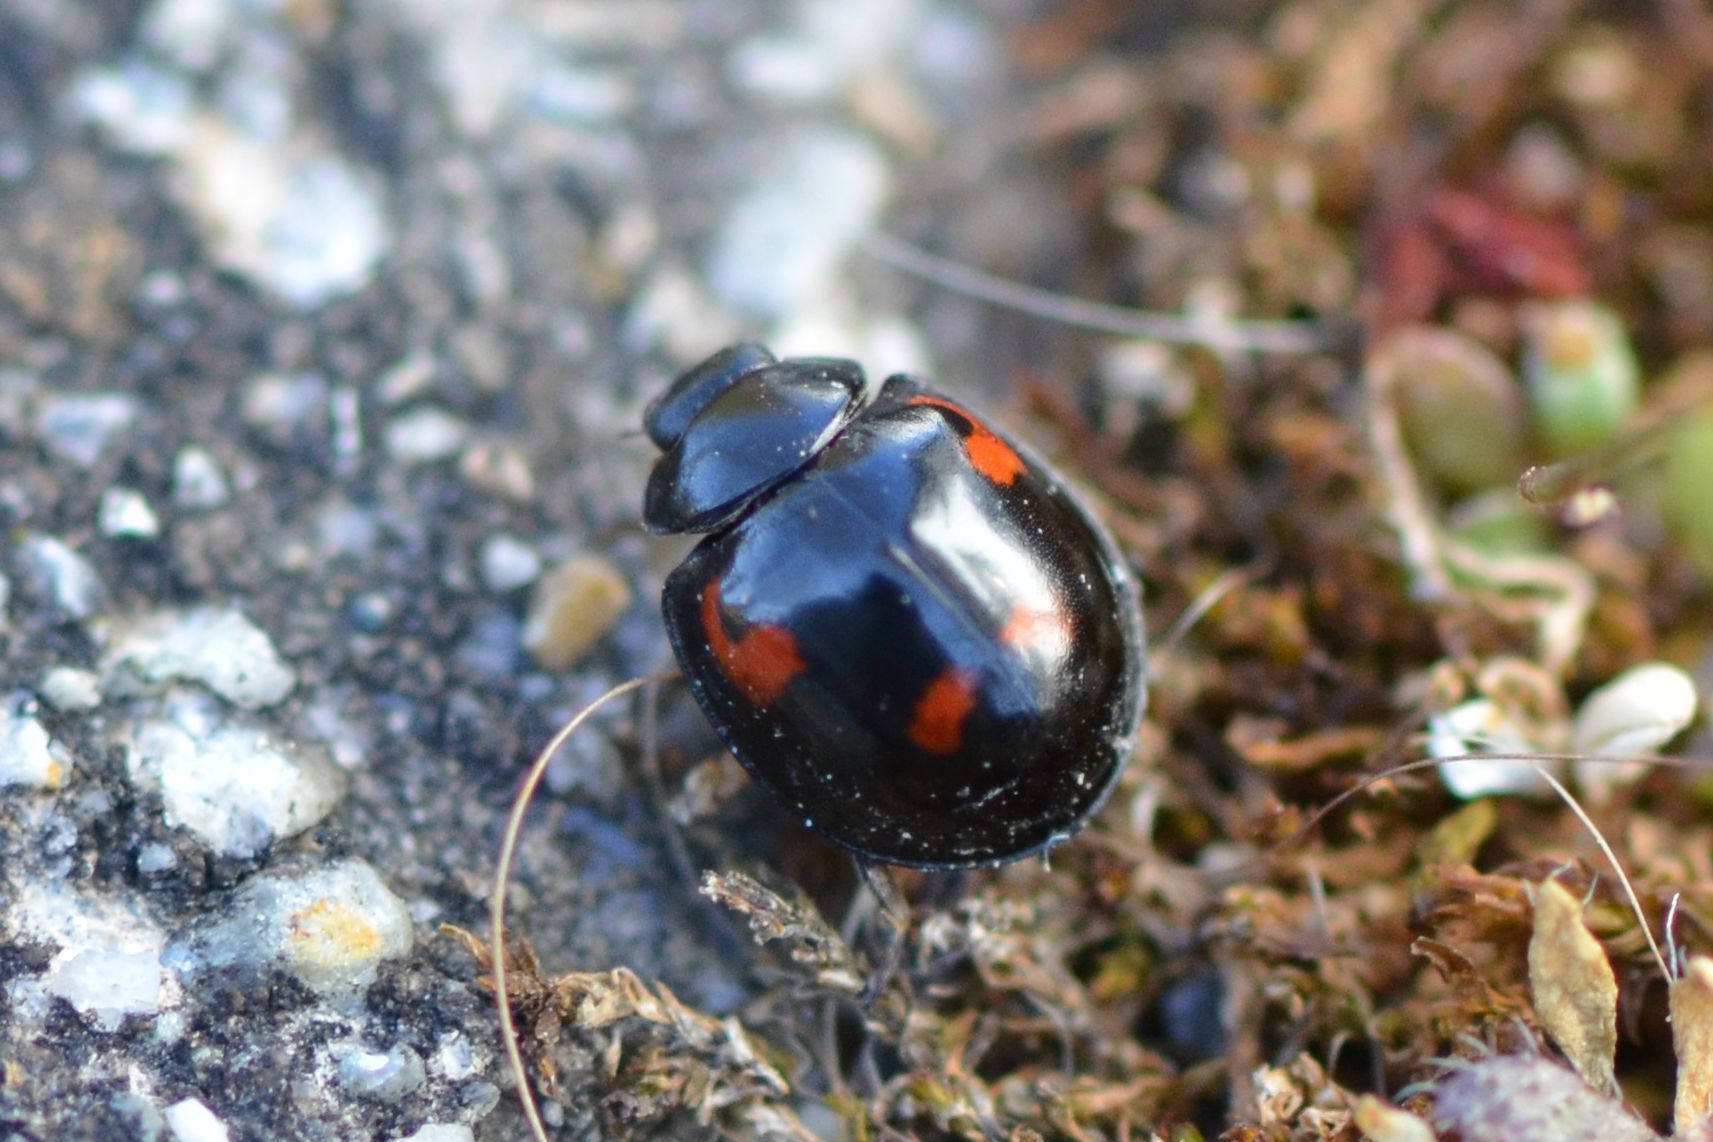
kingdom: Animalia
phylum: Arthropoda
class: Insecta
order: Coleoptera
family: Coccinellidae
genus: Brumus
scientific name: Brumus quadripustulatus
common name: Ladybird beetle
